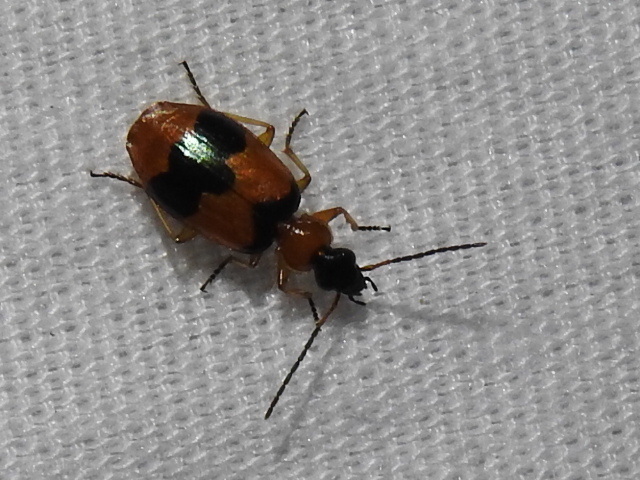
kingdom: Animalia
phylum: Arthropoda
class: Insecta
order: Coleoptera
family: Carabidae
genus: Lebia
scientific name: Lebia pulchella
